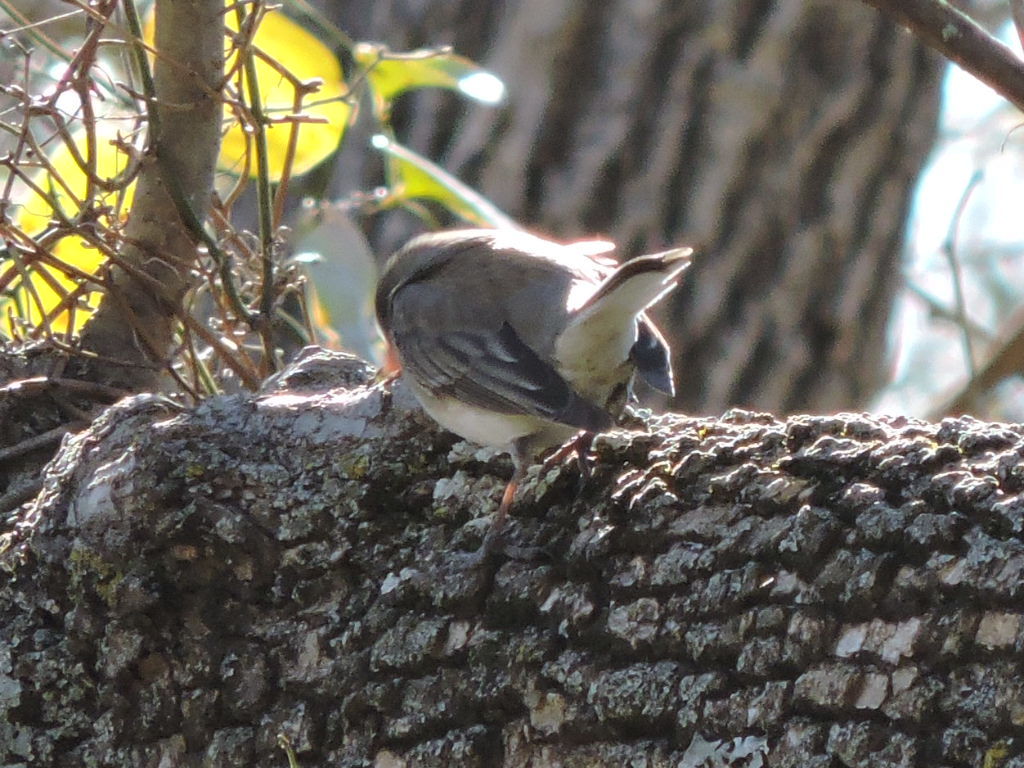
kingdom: Animalia
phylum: Chordata
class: Aves
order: Passeriformes
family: Passerellidae
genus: Junco
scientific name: Junco hyemalis
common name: Dark-eyed junco
